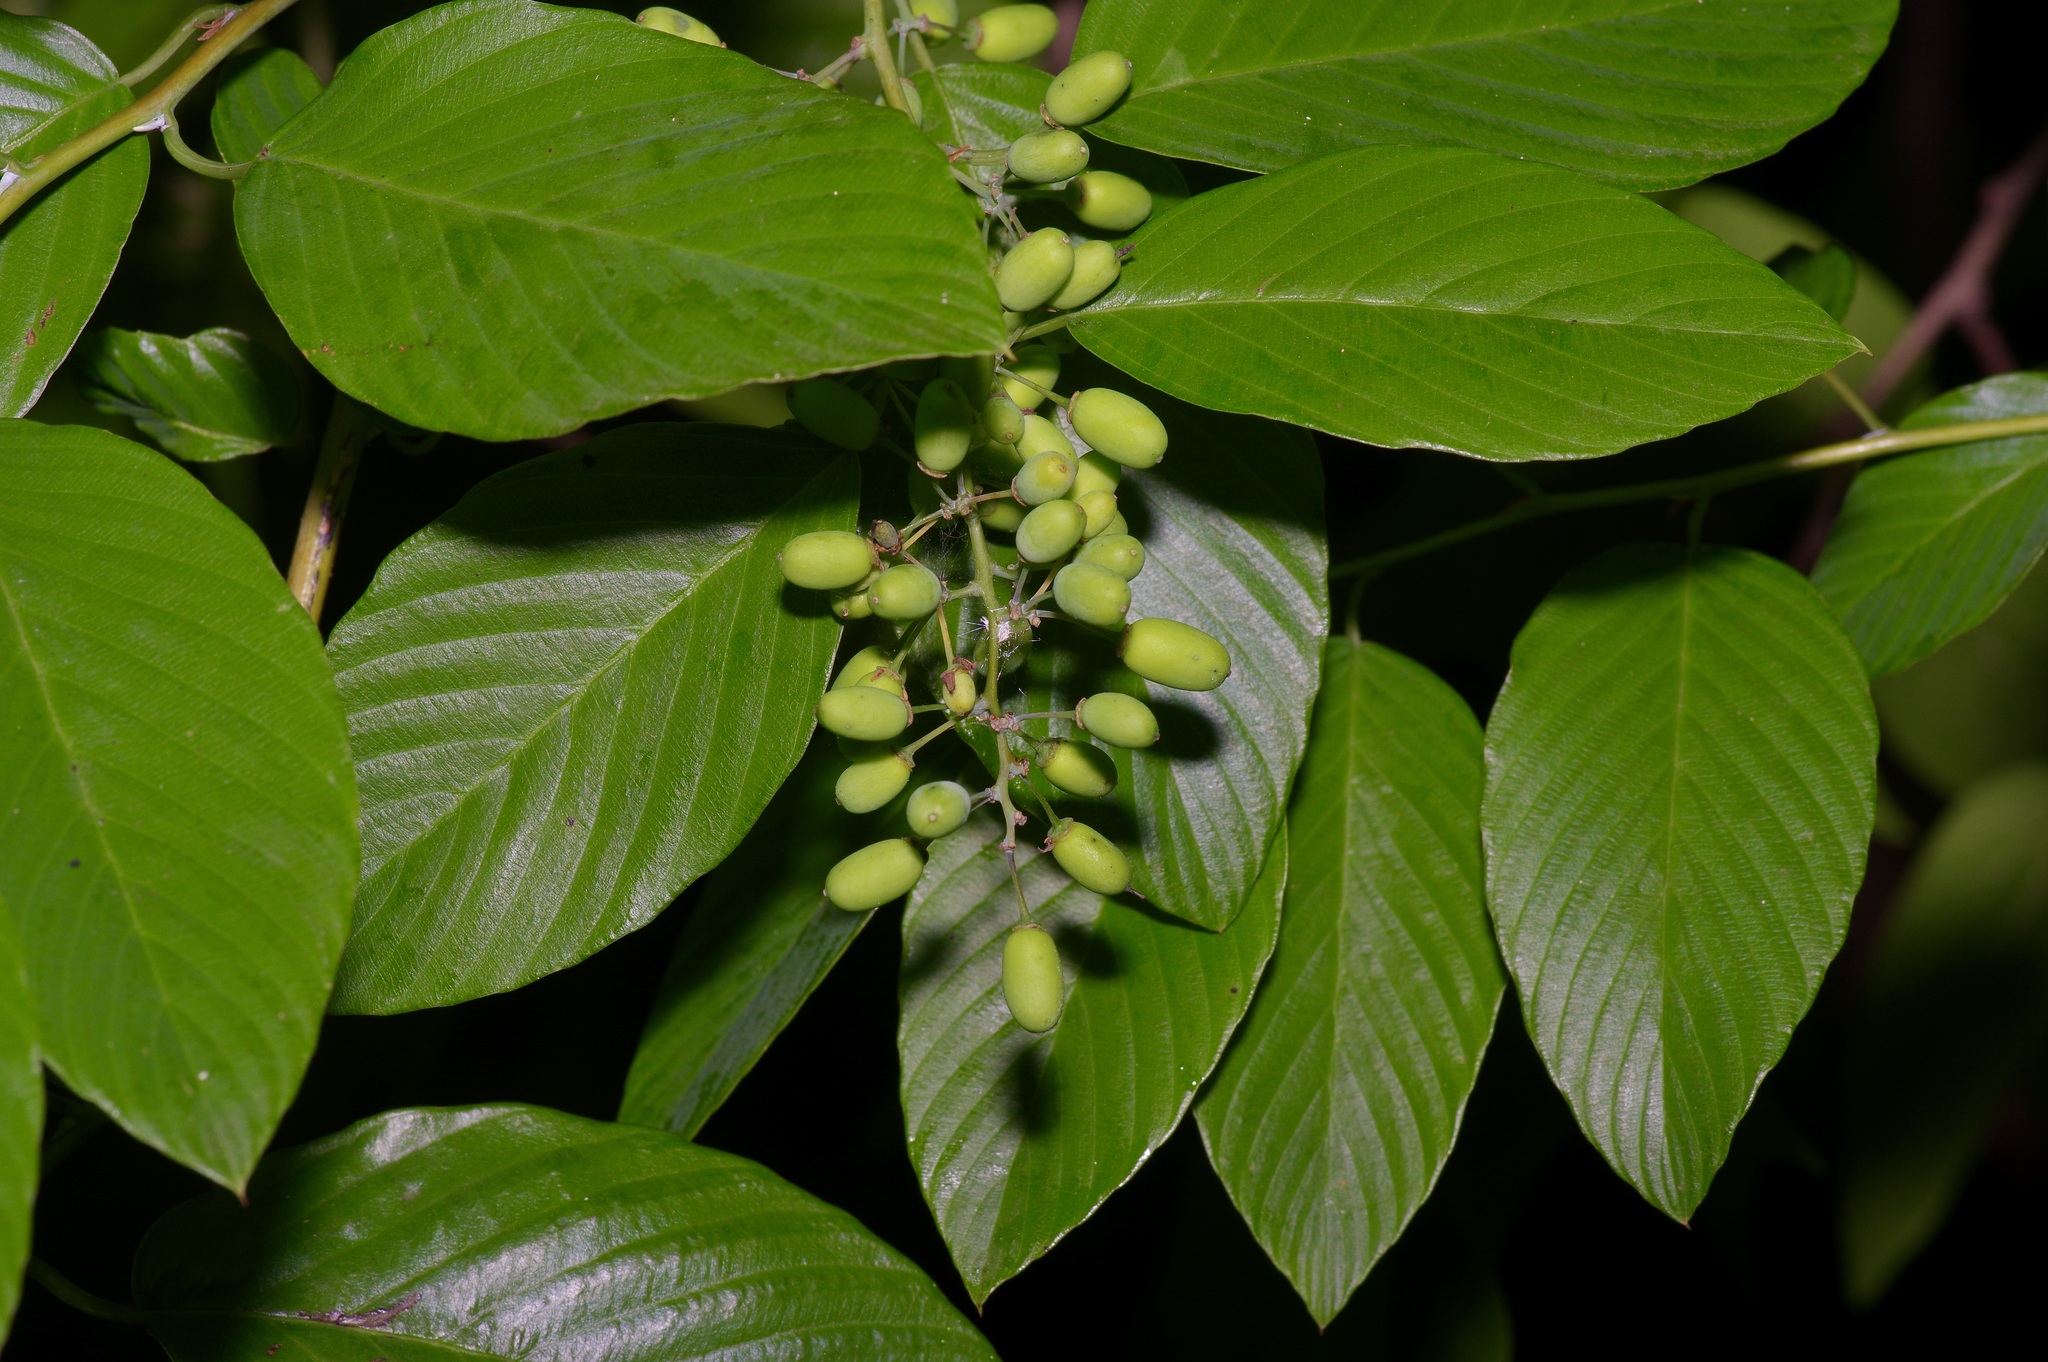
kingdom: Plantae
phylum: Tracheophyta
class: Magnoliopsida
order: Rosales
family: Rhamnaceae
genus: Berchemia
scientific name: Berchemia scandens
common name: Supplejack
